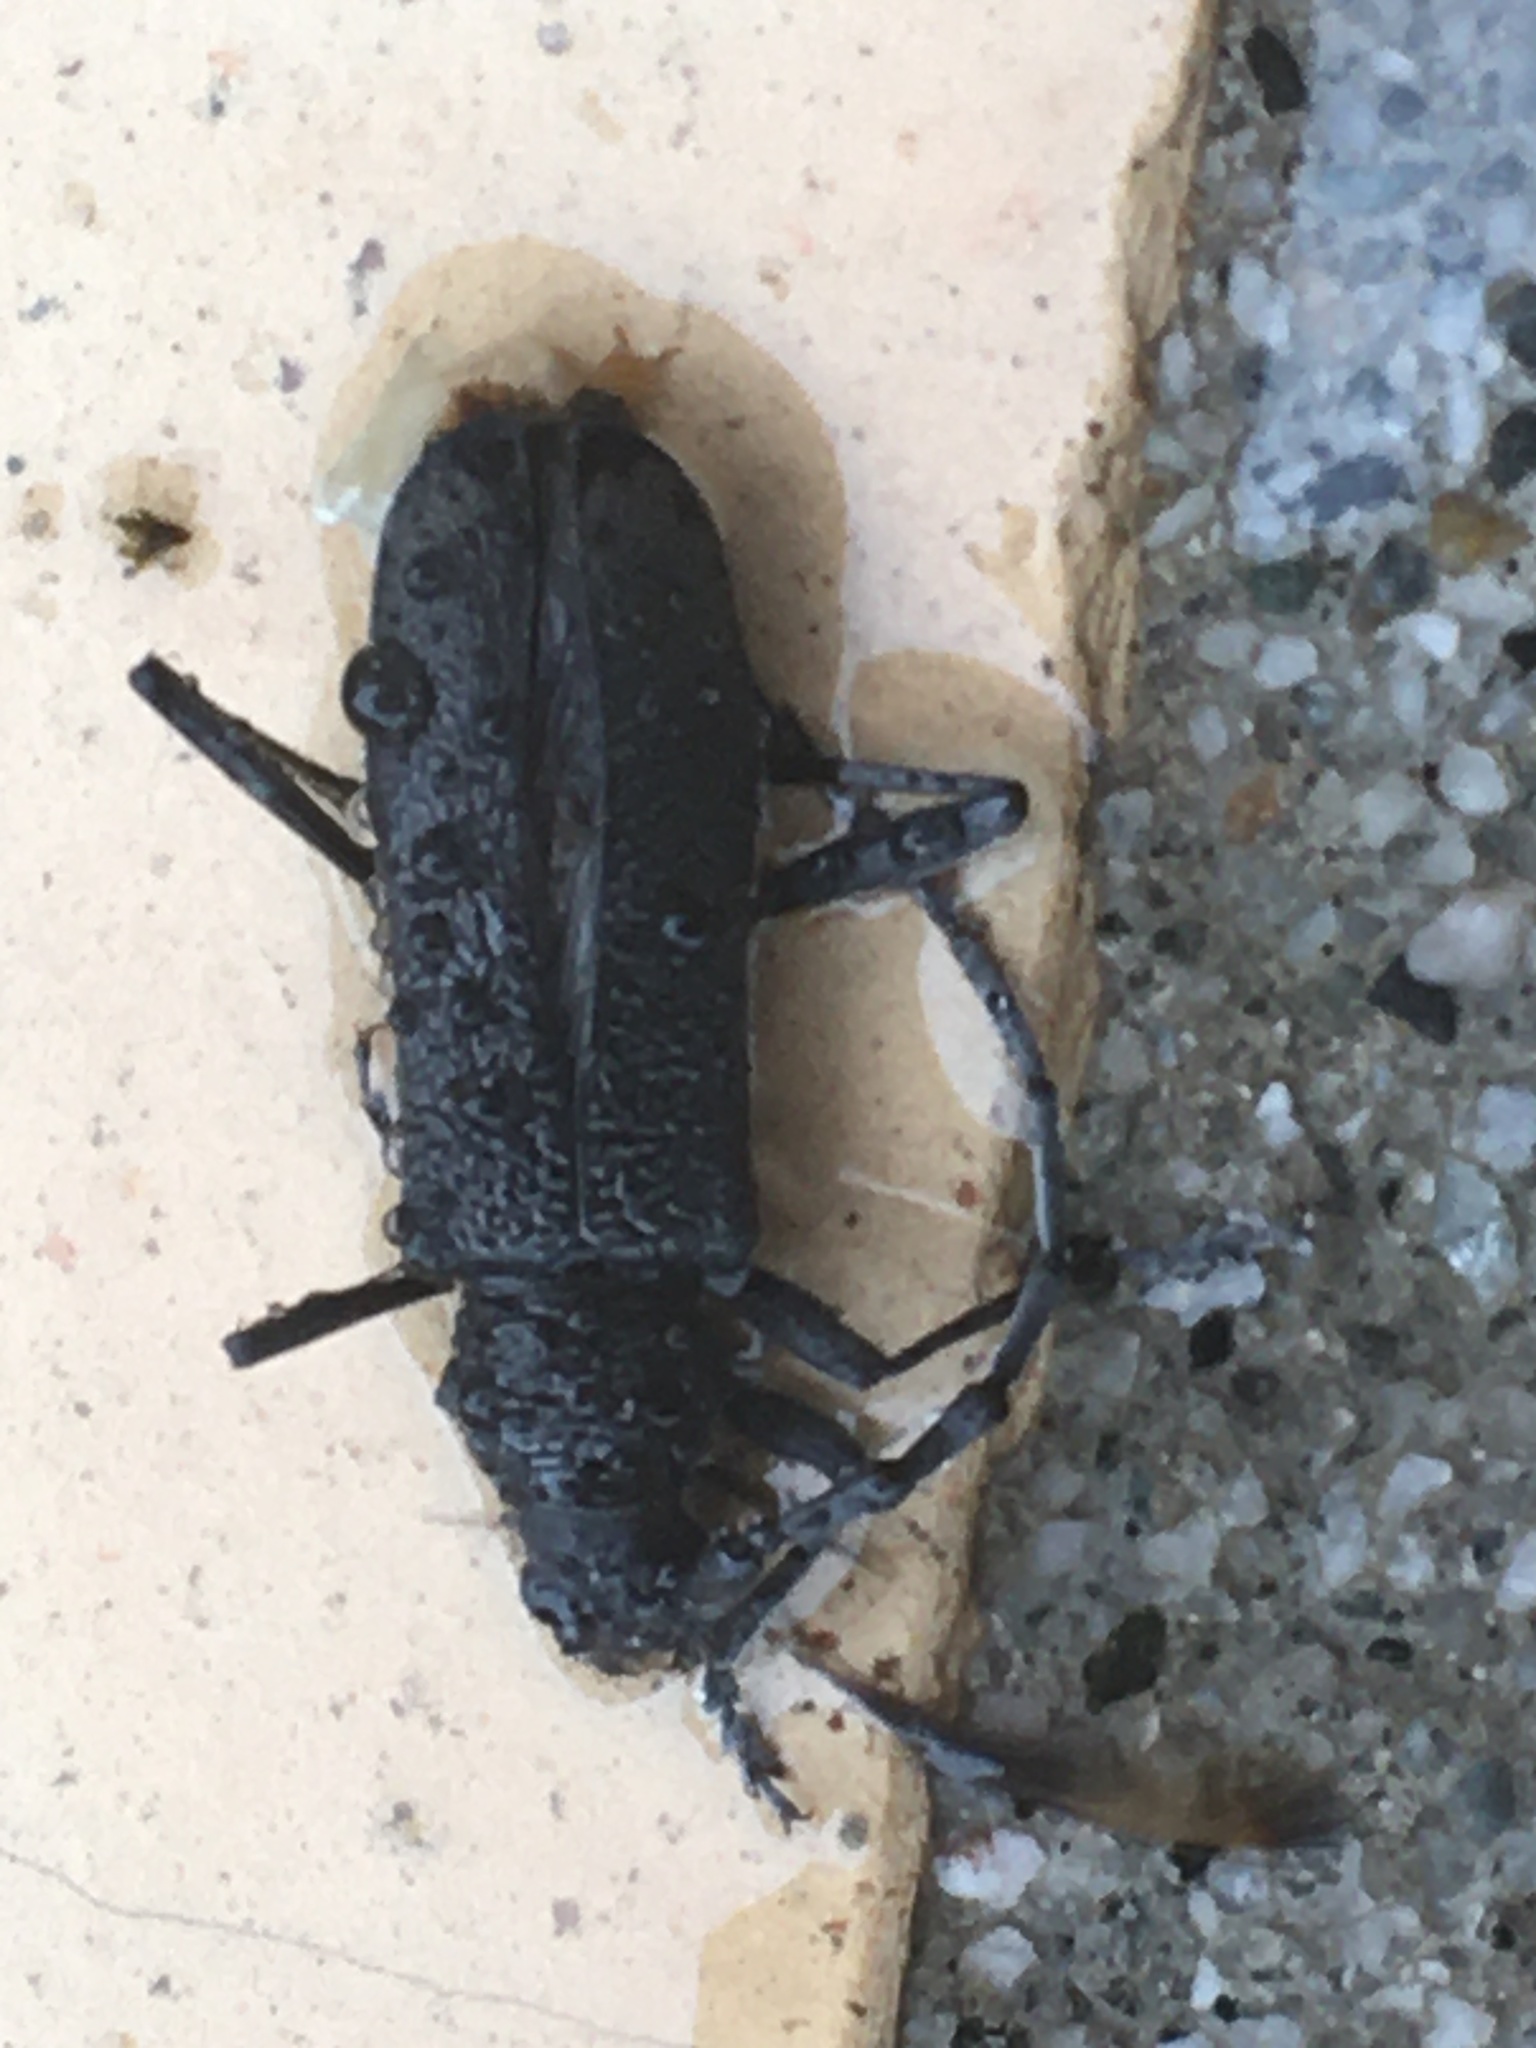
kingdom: Animalia
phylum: Arthropoda
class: Insecta
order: Coleoptera
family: Cerambycidae
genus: Cerambyx
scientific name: Cerambyx scopolii
